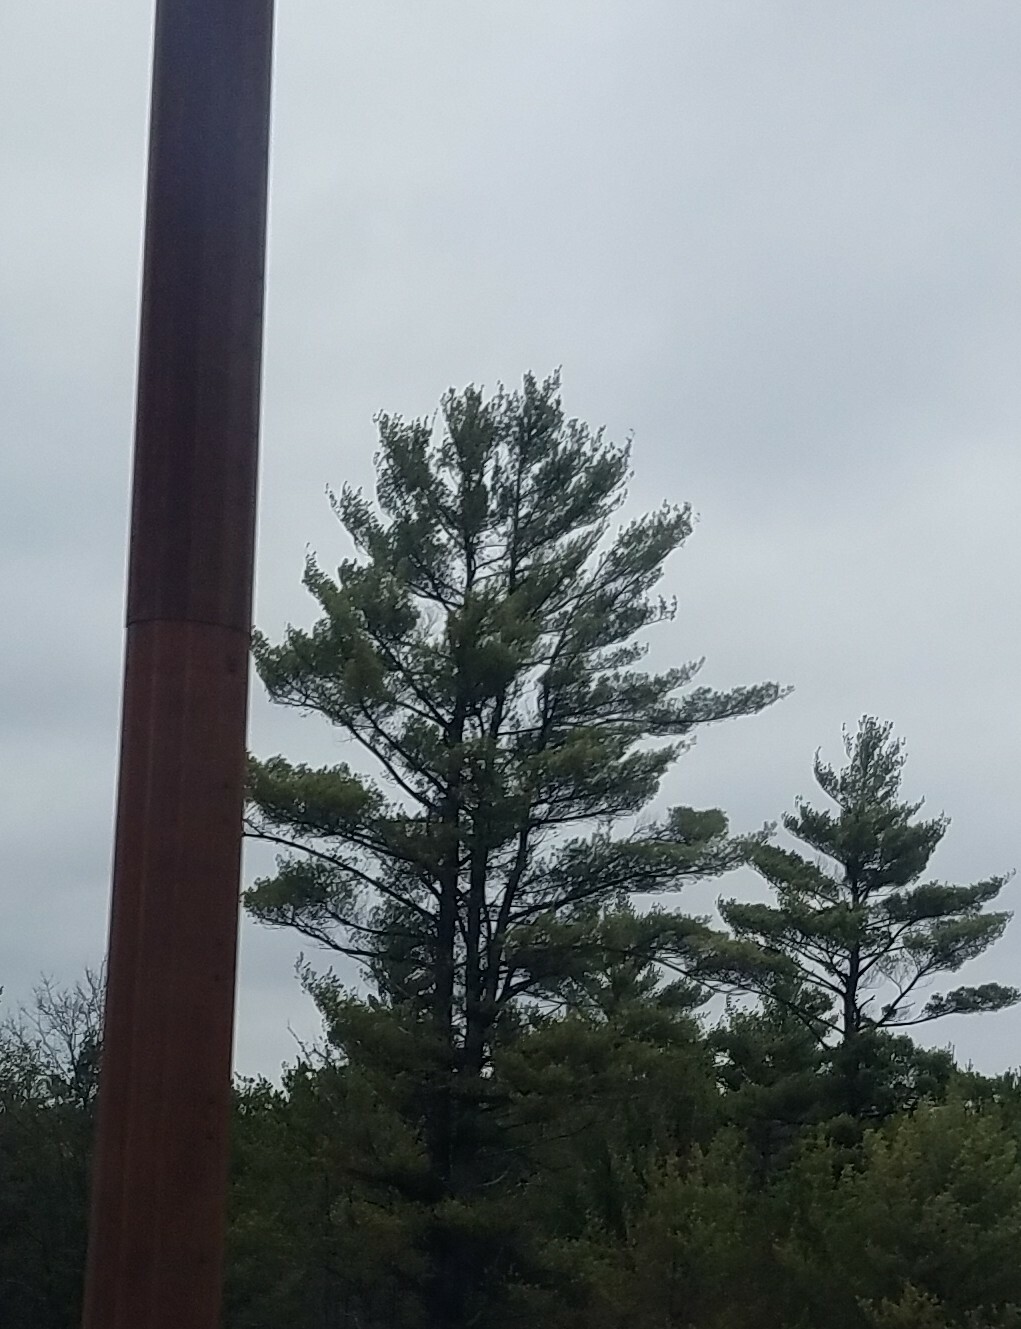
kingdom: Plantae
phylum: Tracheophyta
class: Pinopsida
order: Pinales
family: Pinaceae
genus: Pinus
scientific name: Pinus strobus
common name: Weymouth pine
